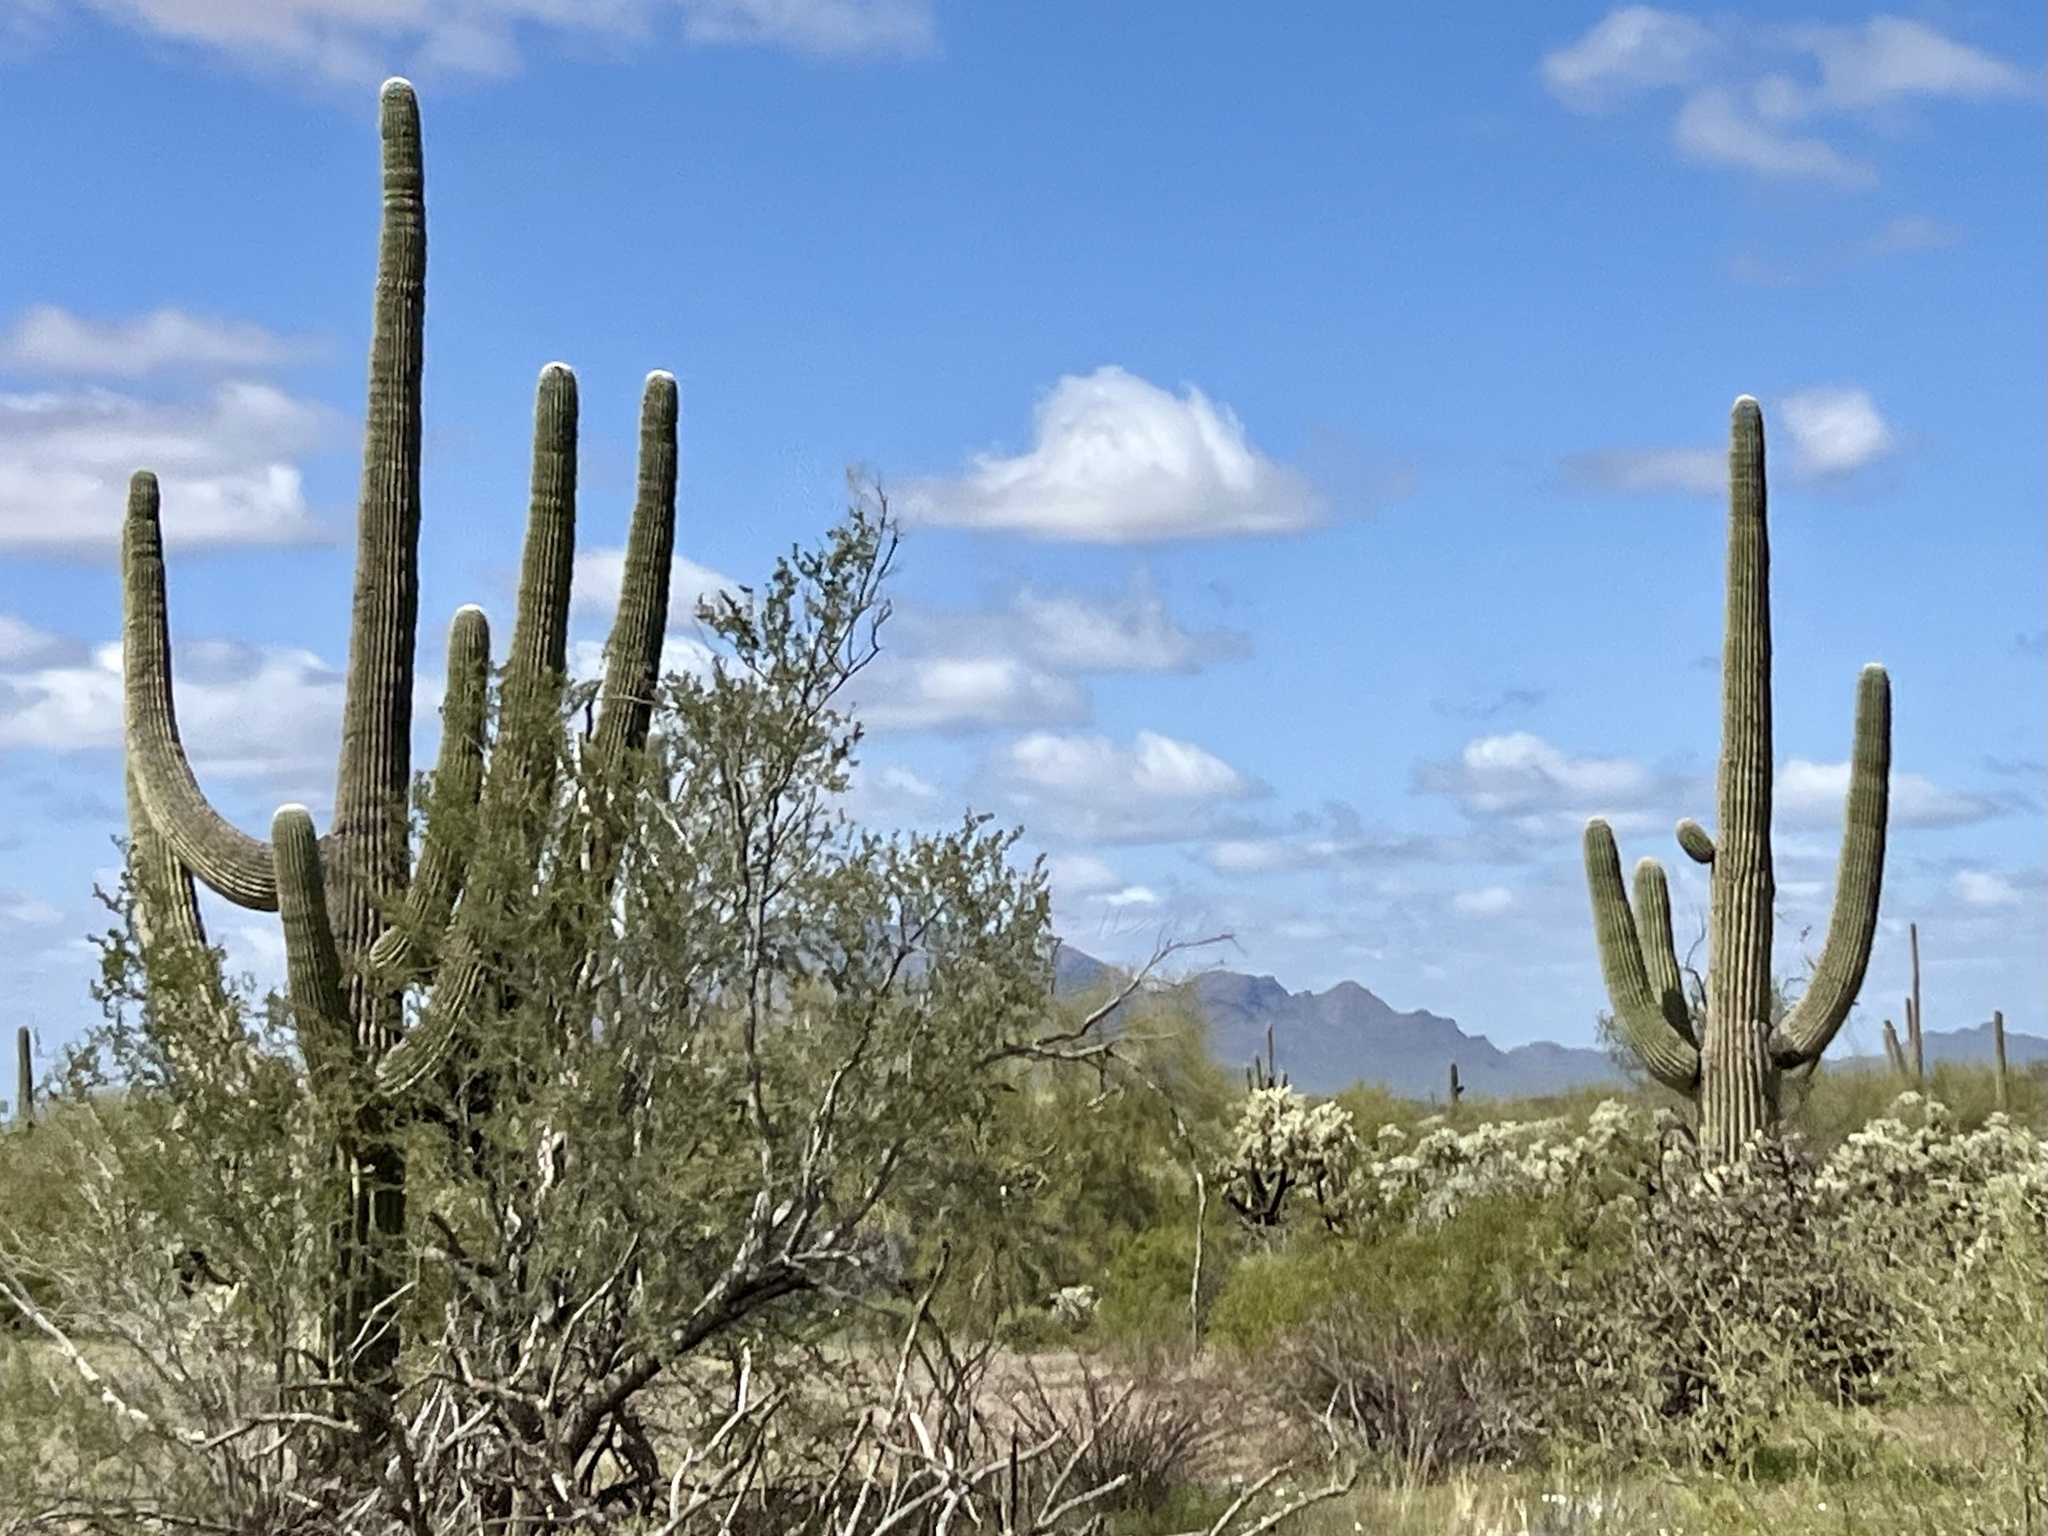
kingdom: Plantae
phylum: Tracheophyta
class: Magnoliopsida
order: Caryophyllales
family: Cactaceae
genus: Carnegiea
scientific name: Carnegiea gigantea
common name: Saguaro
